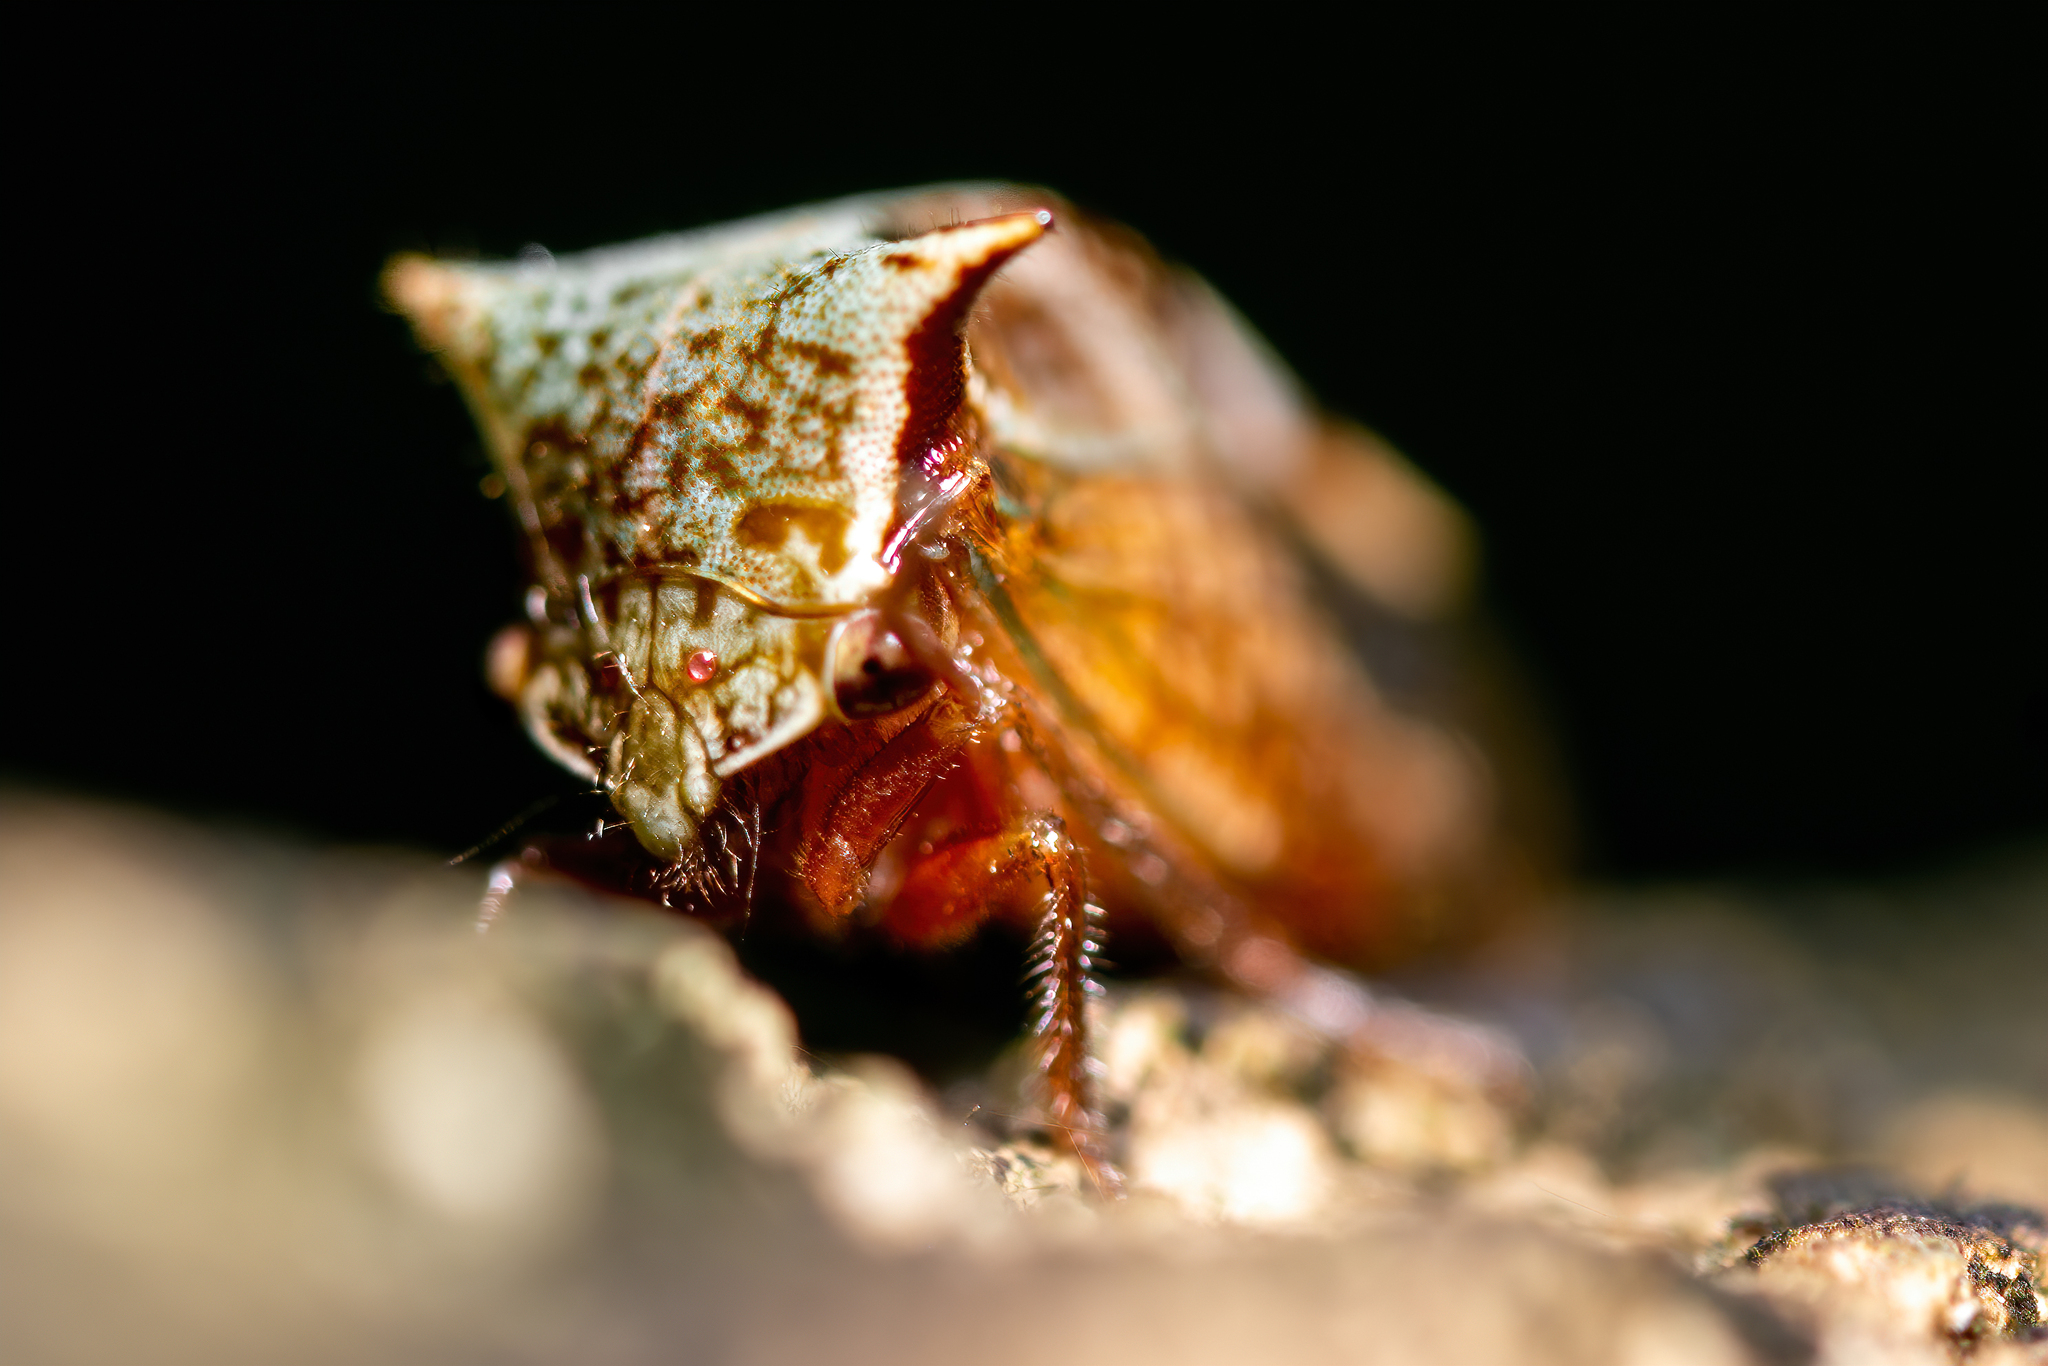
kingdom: Animalia
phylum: Arthropoda
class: Insecta
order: Hemiptera
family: Membracidae
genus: Stictocephala
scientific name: Stictocephala albescens
